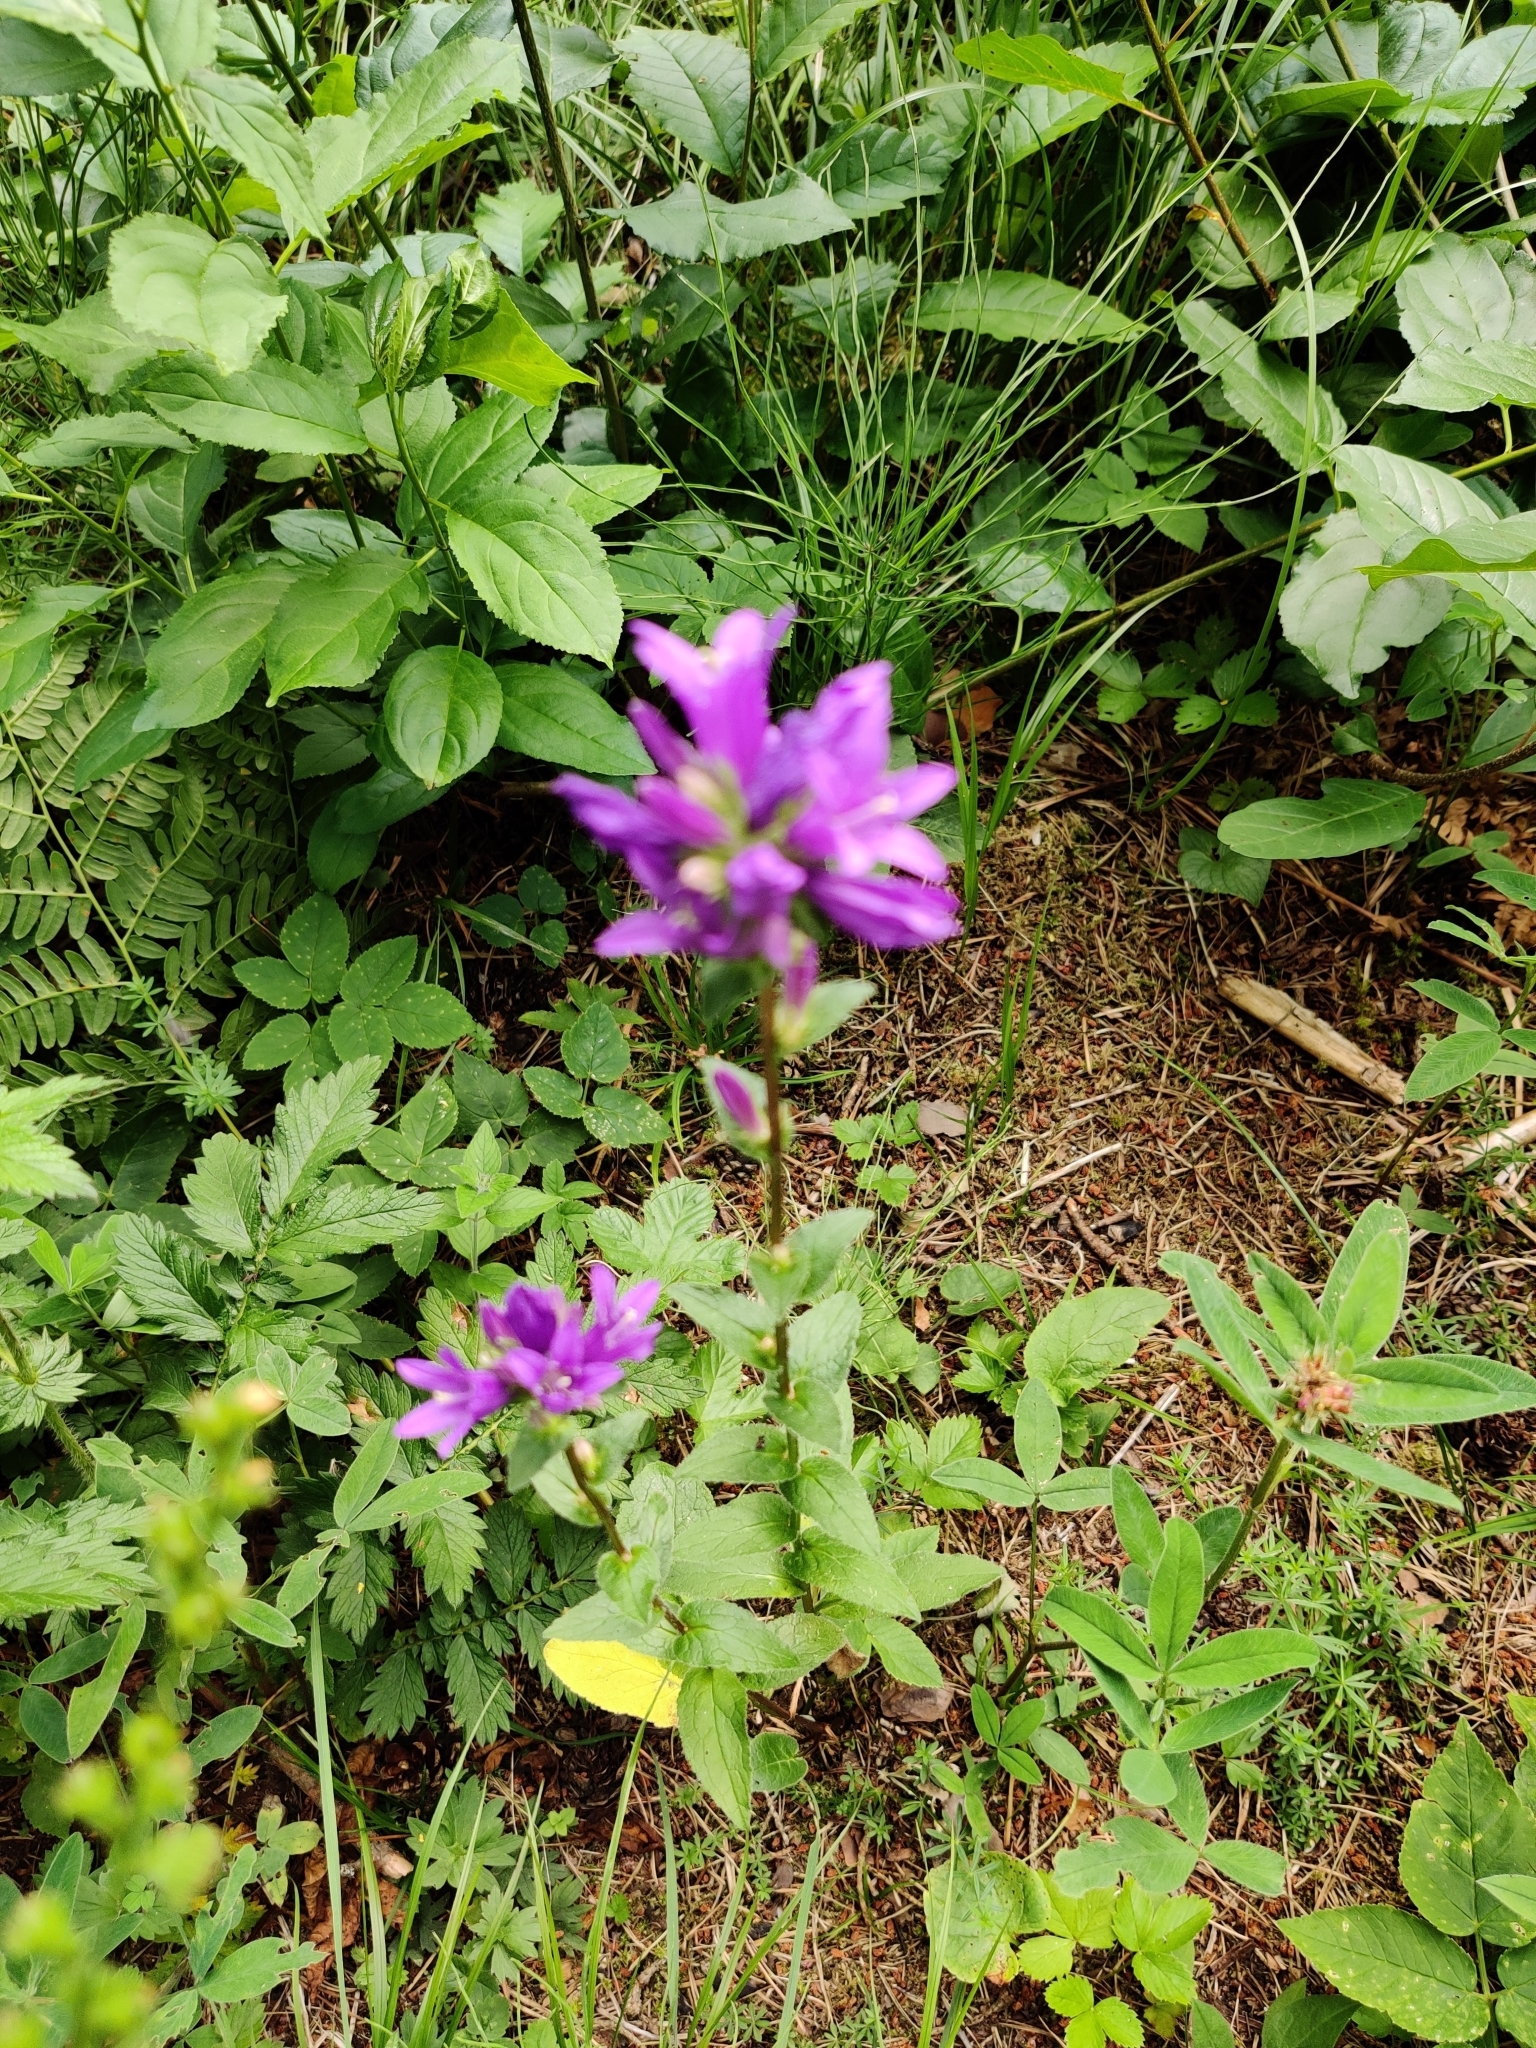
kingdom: Plantae
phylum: Tracheophyta
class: Magnoliopsida
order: Asterales
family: Campanulaceae
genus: Campanula
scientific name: Campanula glomerata
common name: Clustered bellflower
